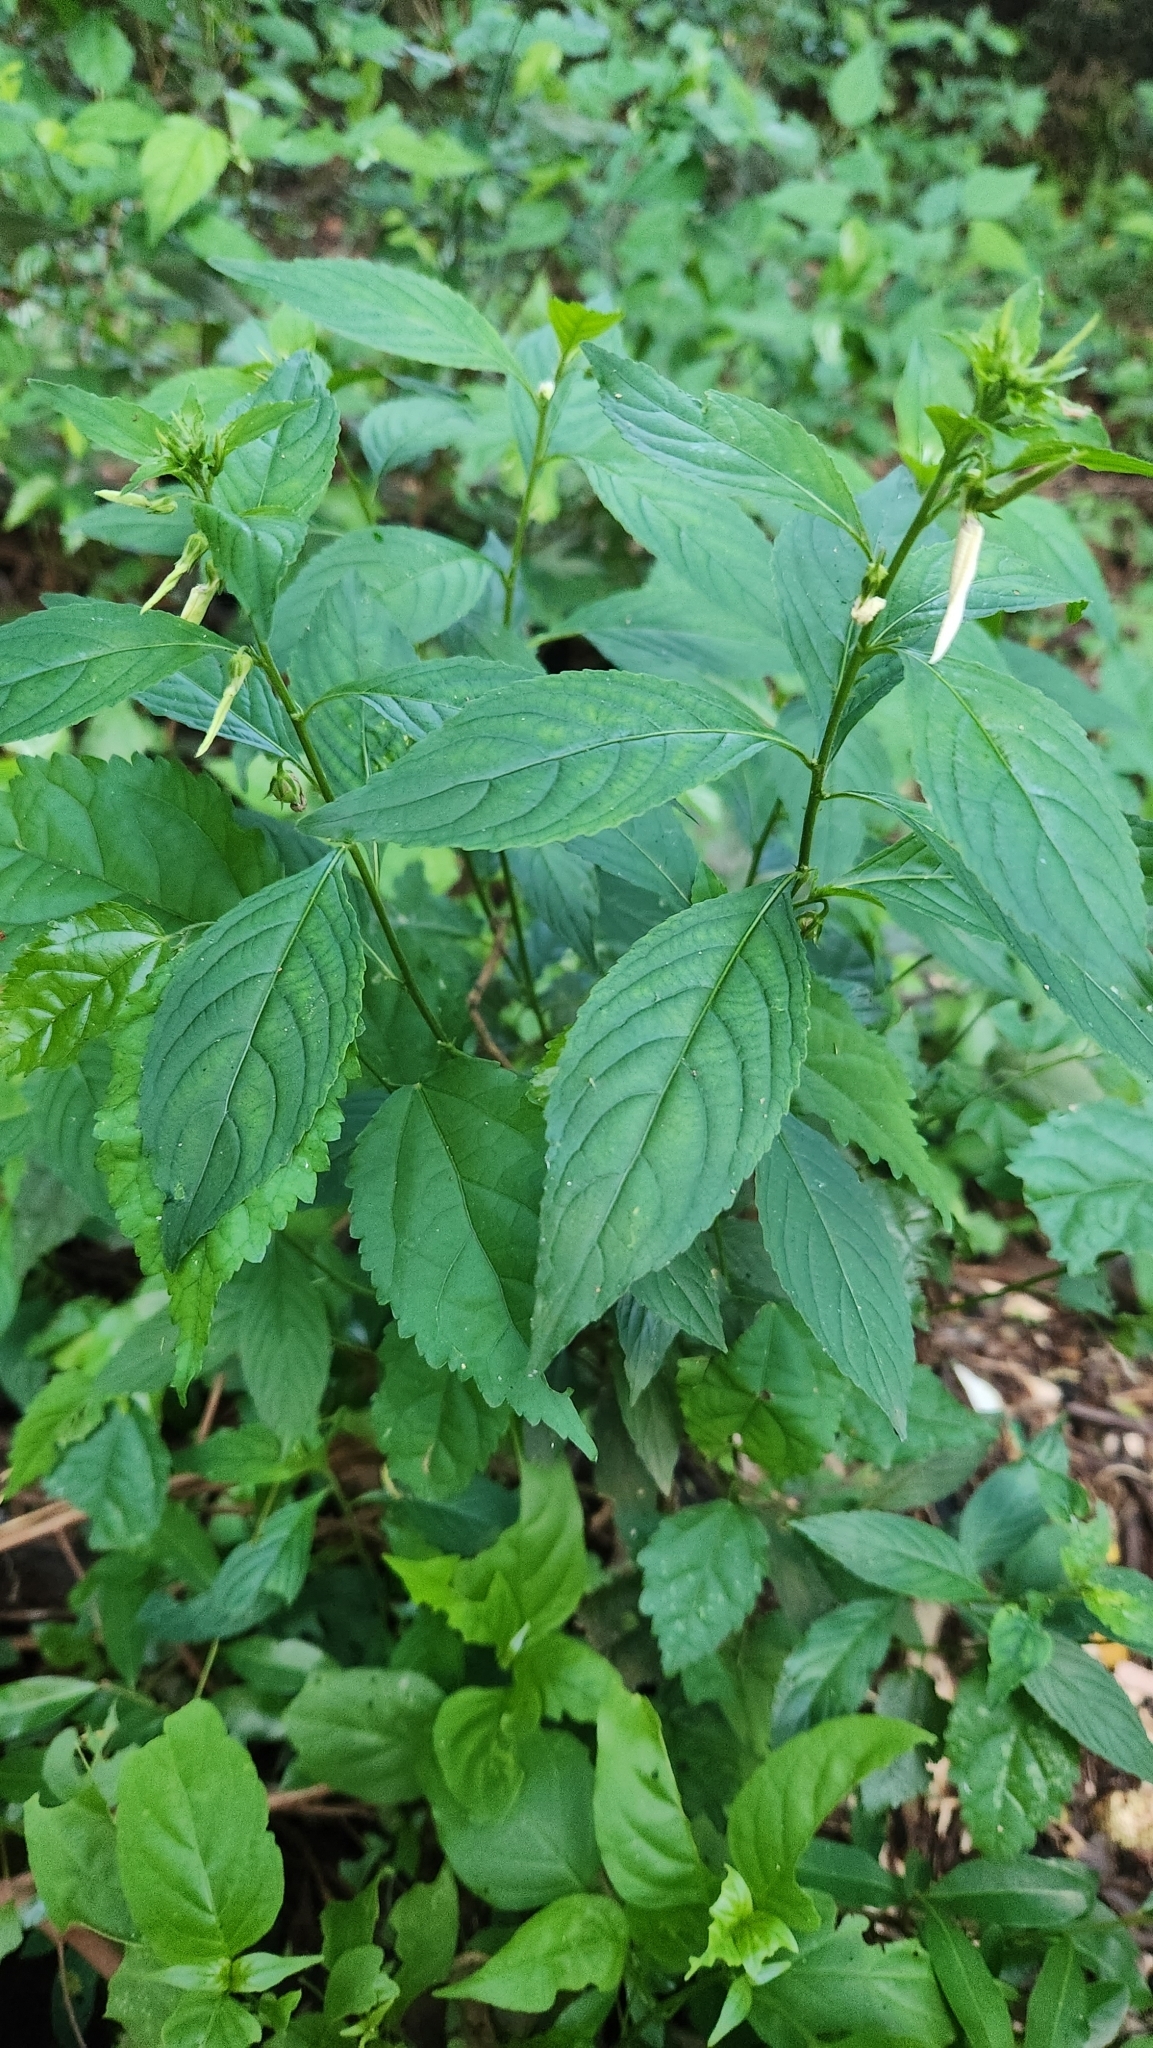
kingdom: Plantae
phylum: Tracheophyta
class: Magnoliopsida
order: Malpighiales
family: Violaceae
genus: Pombalia
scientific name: Pombalia communis
